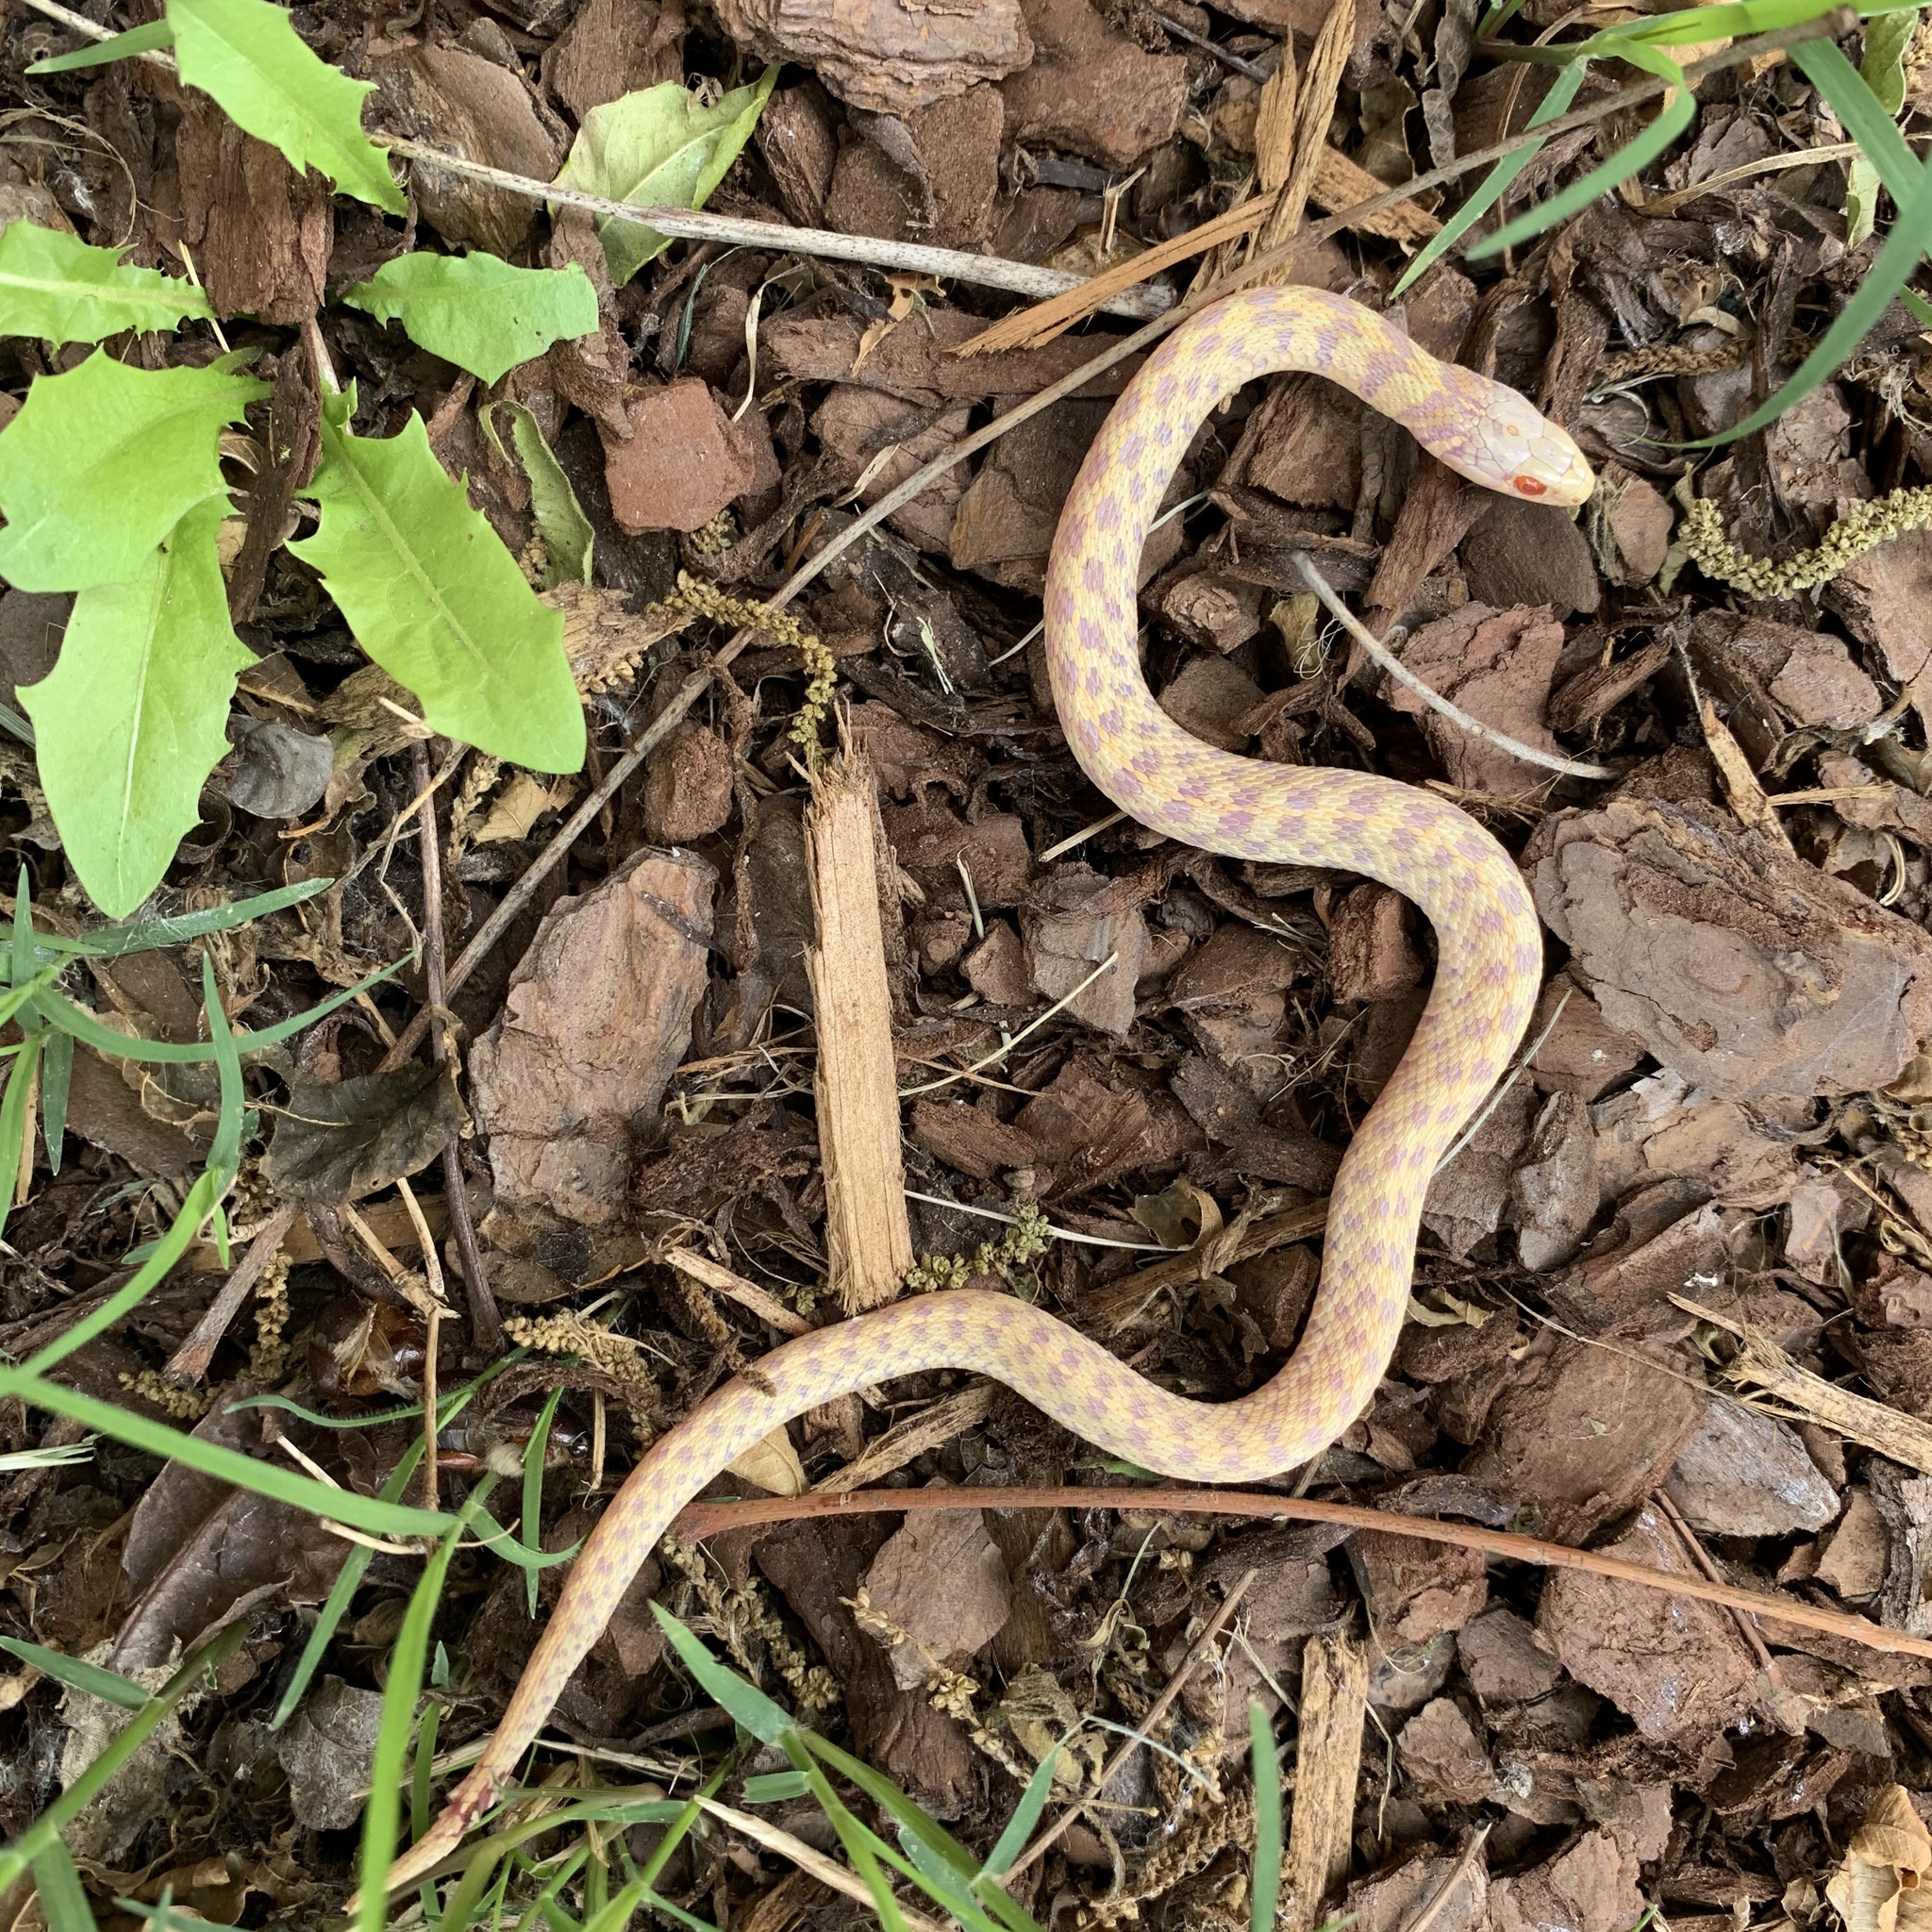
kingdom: Animalia
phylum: Chordata
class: Squamata
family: Colubridae
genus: Thamnophis
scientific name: Thamnophis marcianus
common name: Checkered garter snake
